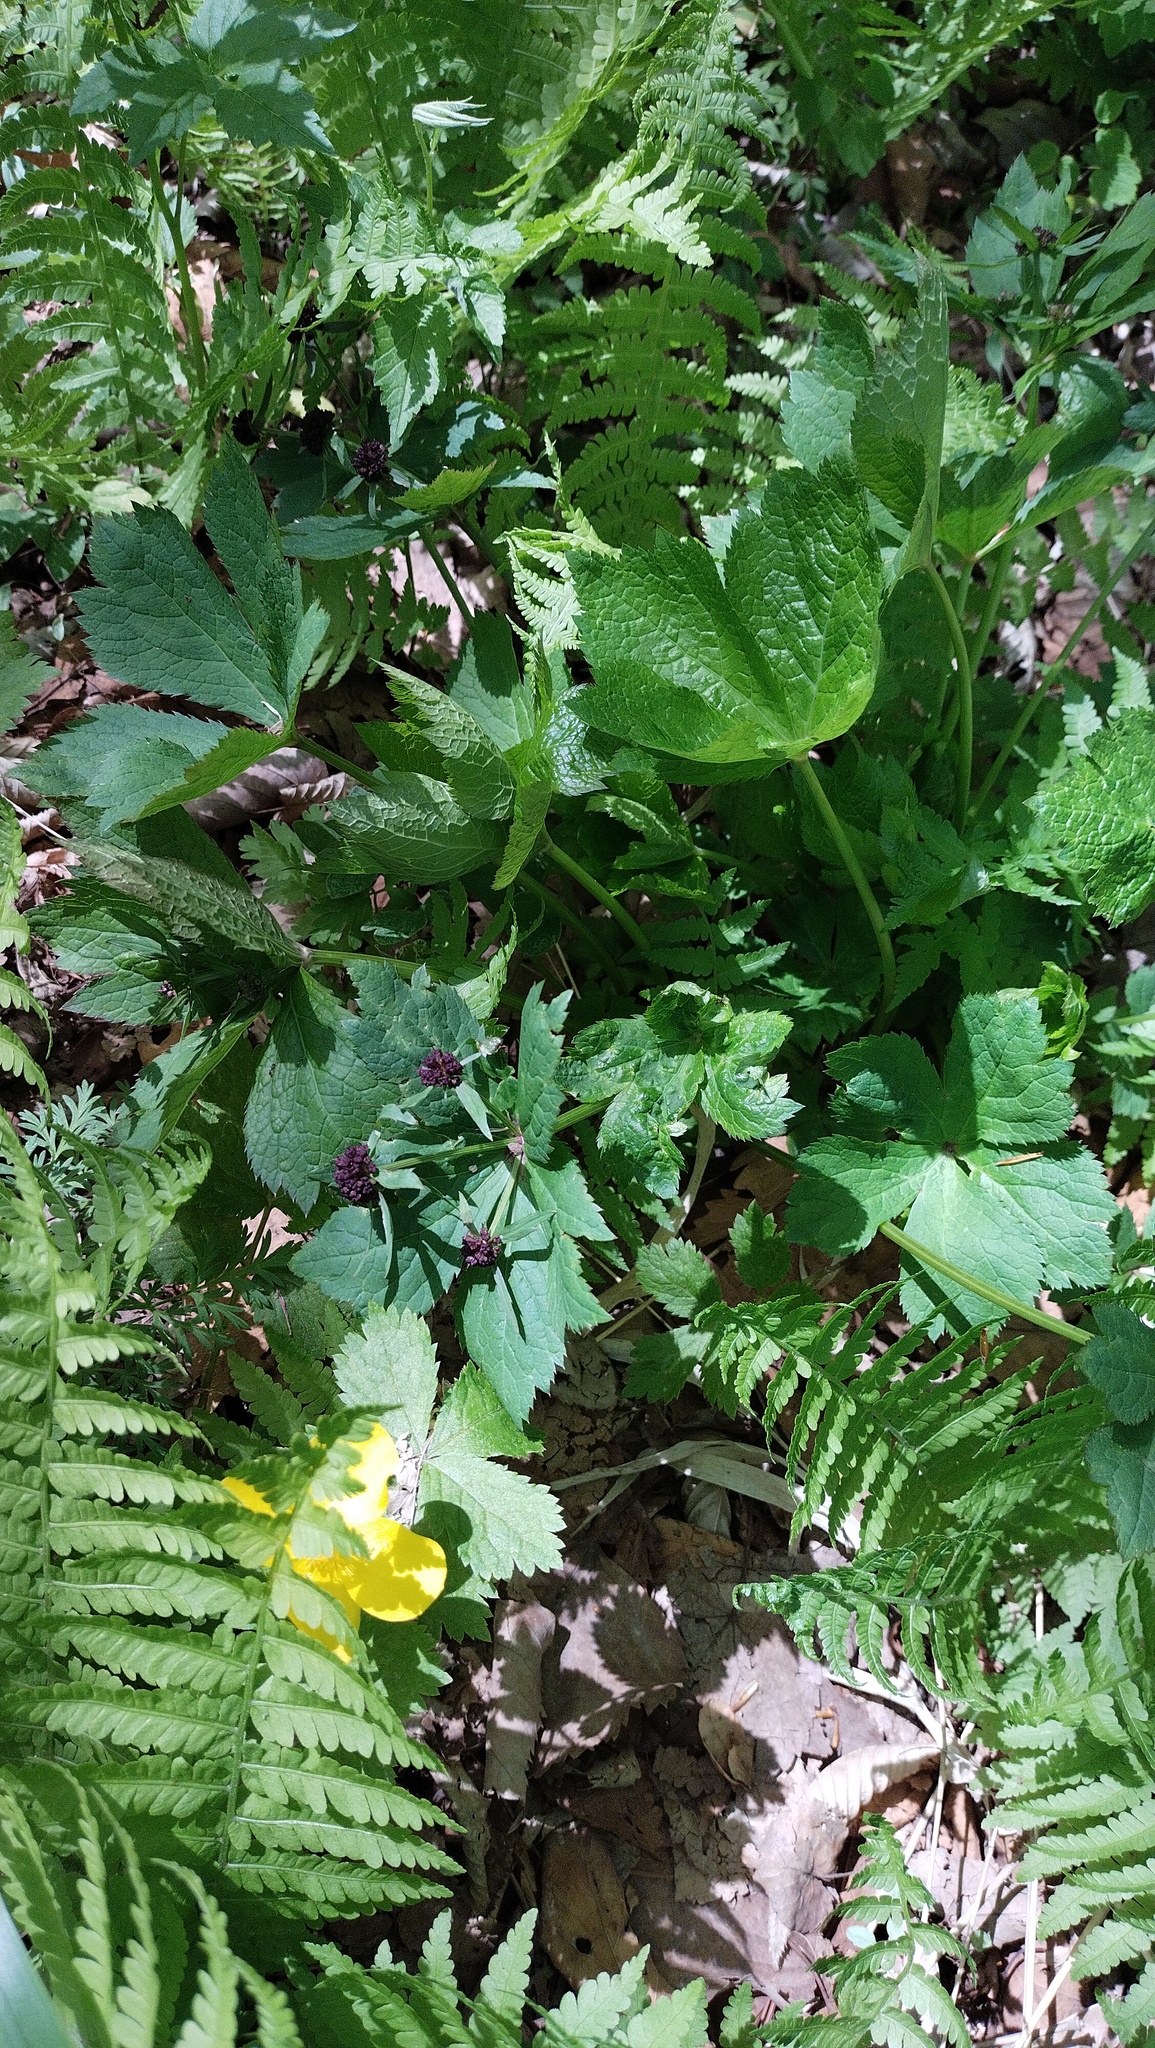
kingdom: Plantae
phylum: Tracheophyta
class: Magnoliopsida
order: Apiales
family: Apiaceae
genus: Sanicula
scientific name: Sanicula rubriflora
